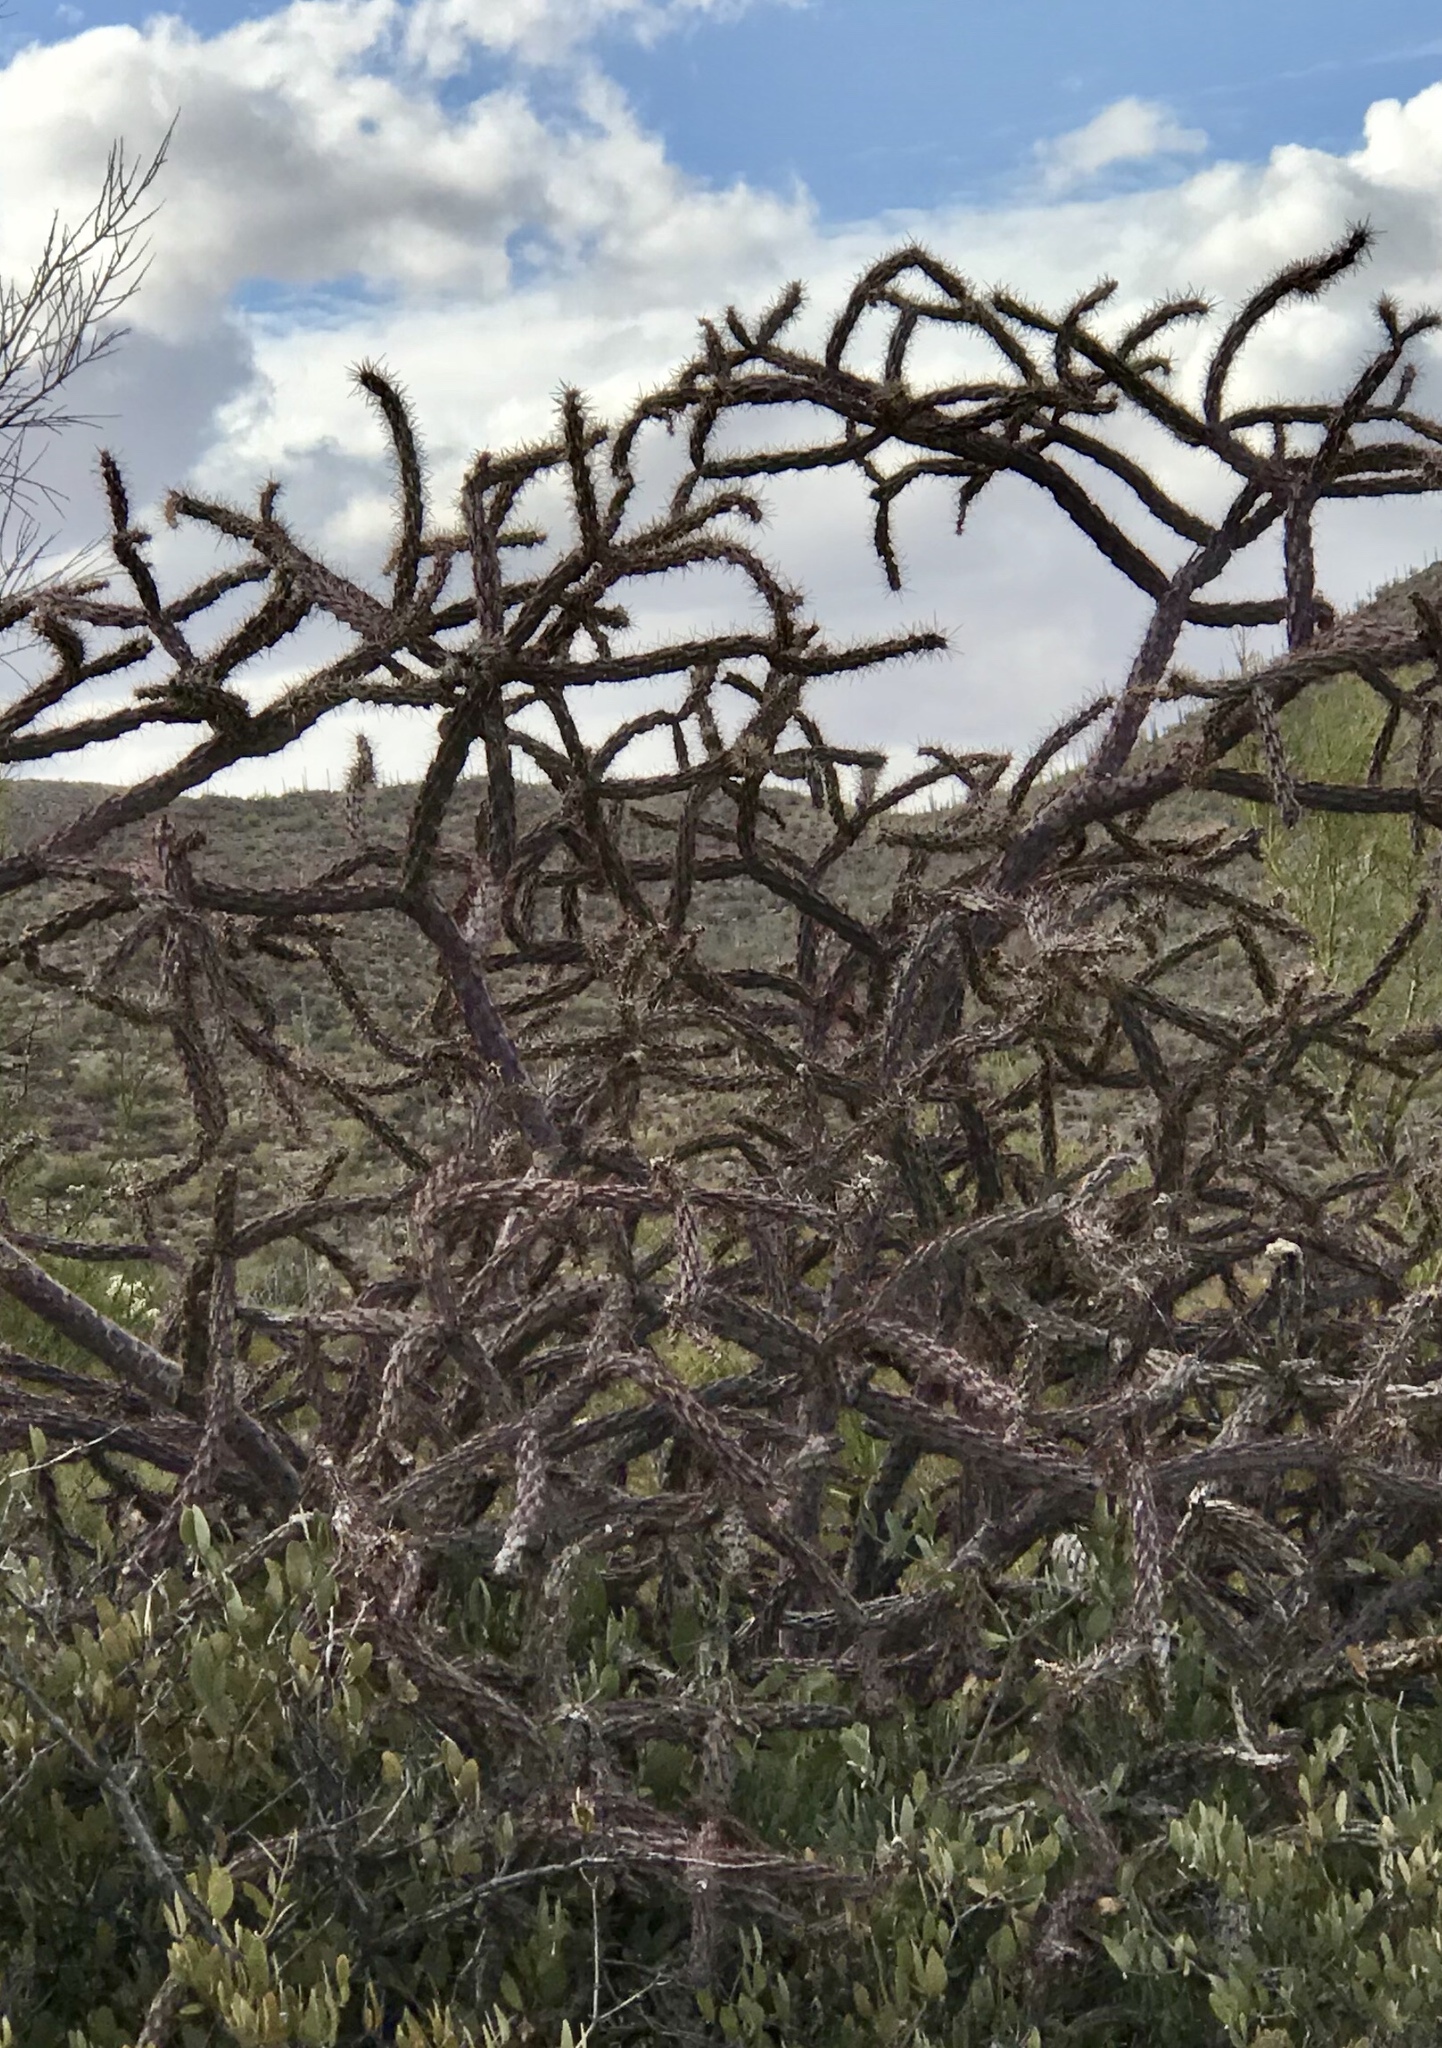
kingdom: Plantae
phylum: Tracheophyta
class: Magnoliopsida
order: Caryophyllales
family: Cactaceae
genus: Cylindropuntia
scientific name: Cylindropuntia thurberi
